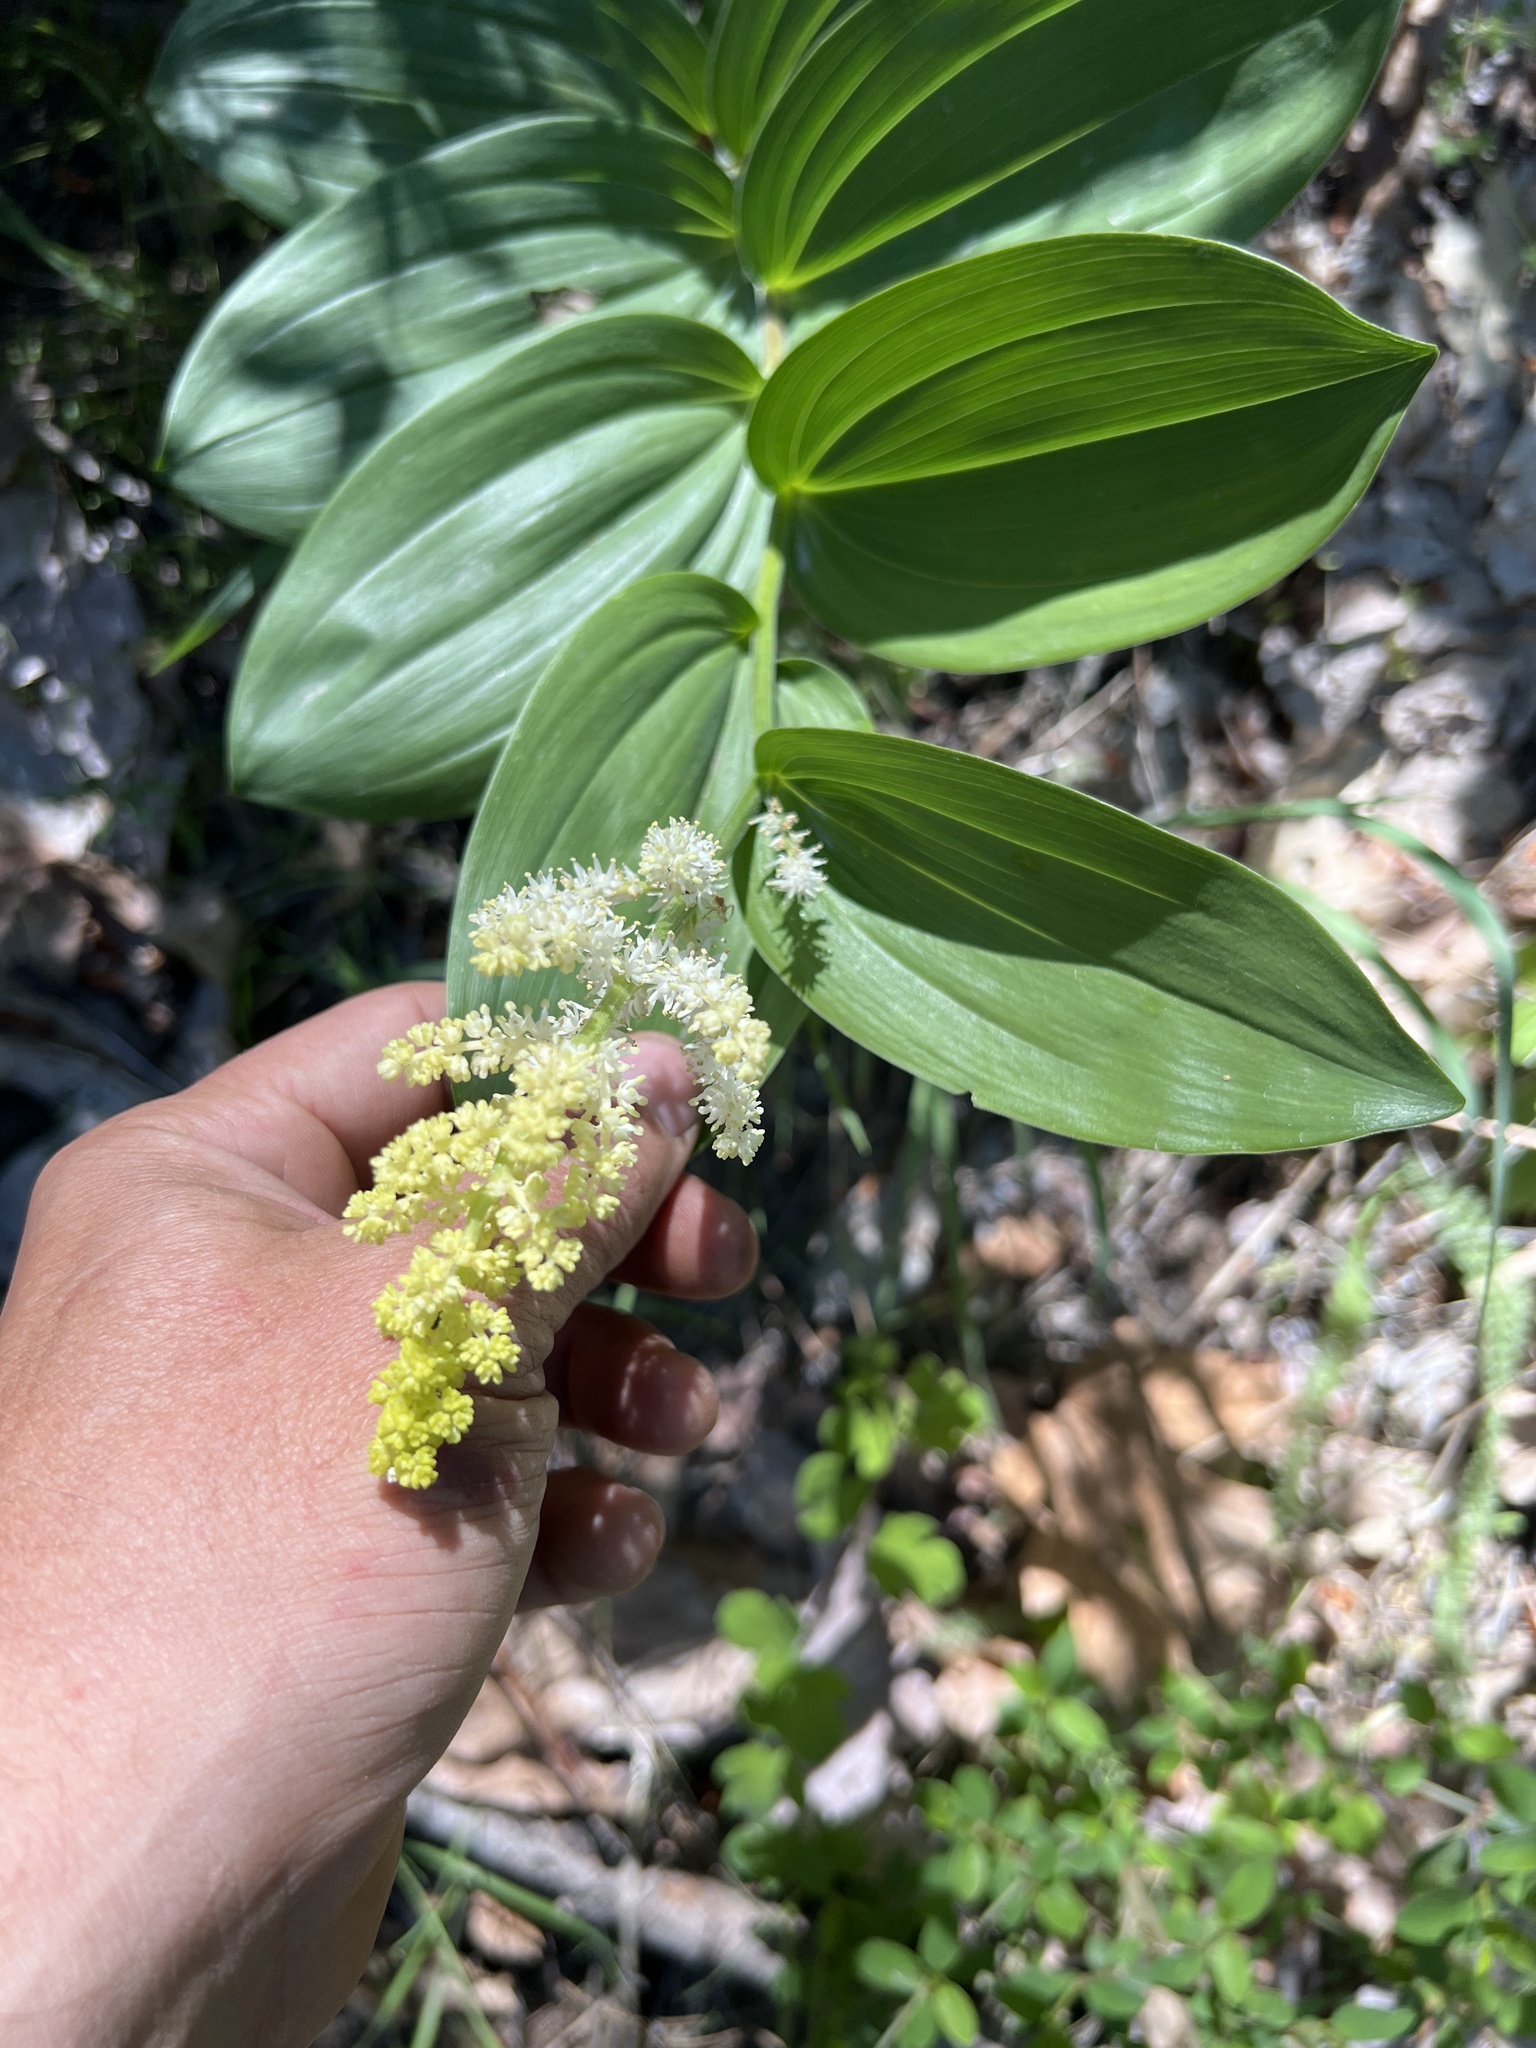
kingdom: Plantae
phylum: Tracheophyta
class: Liliopsida
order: Asparagales
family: Asparagaceae
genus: Maianthemum
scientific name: Maianthemum racemosum
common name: False spikenard
